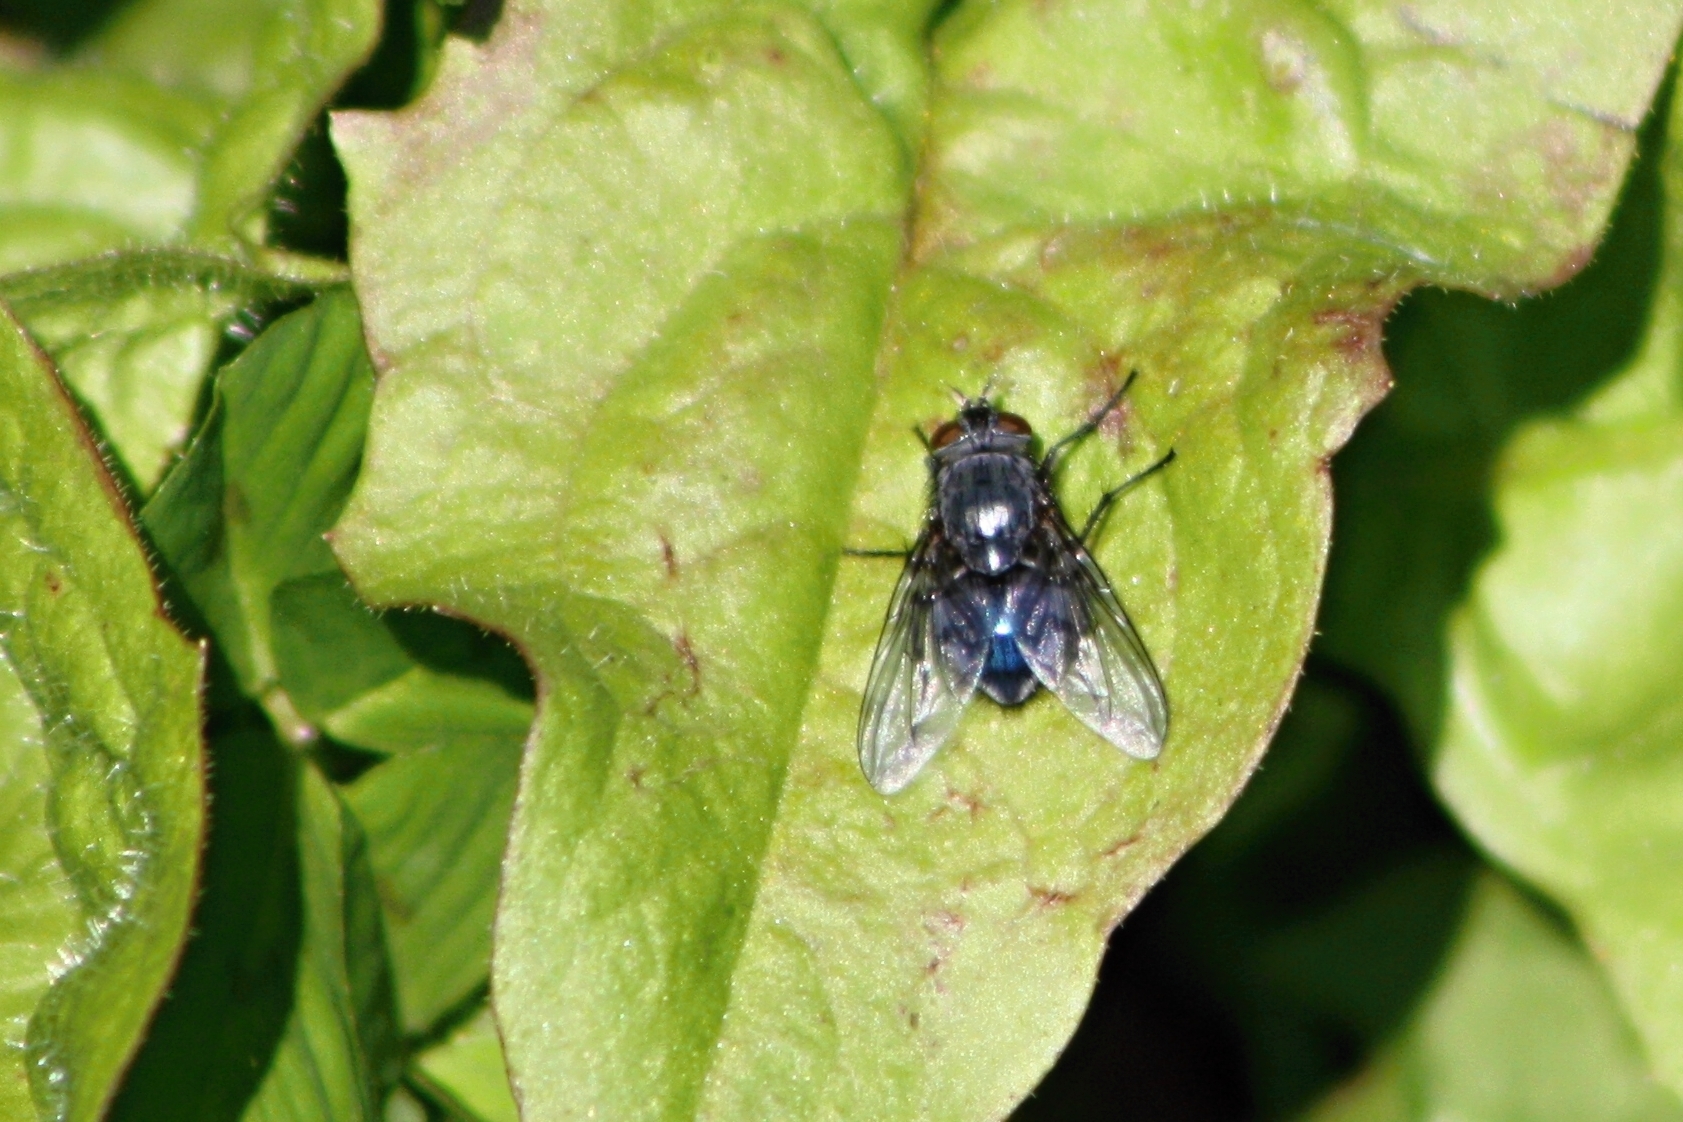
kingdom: Animalia
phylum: Arthropoda
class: Insecta
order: Diptera
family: Calliphoridae
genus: Calliphora
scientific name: Calliphora vicina
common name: Common blow flie
